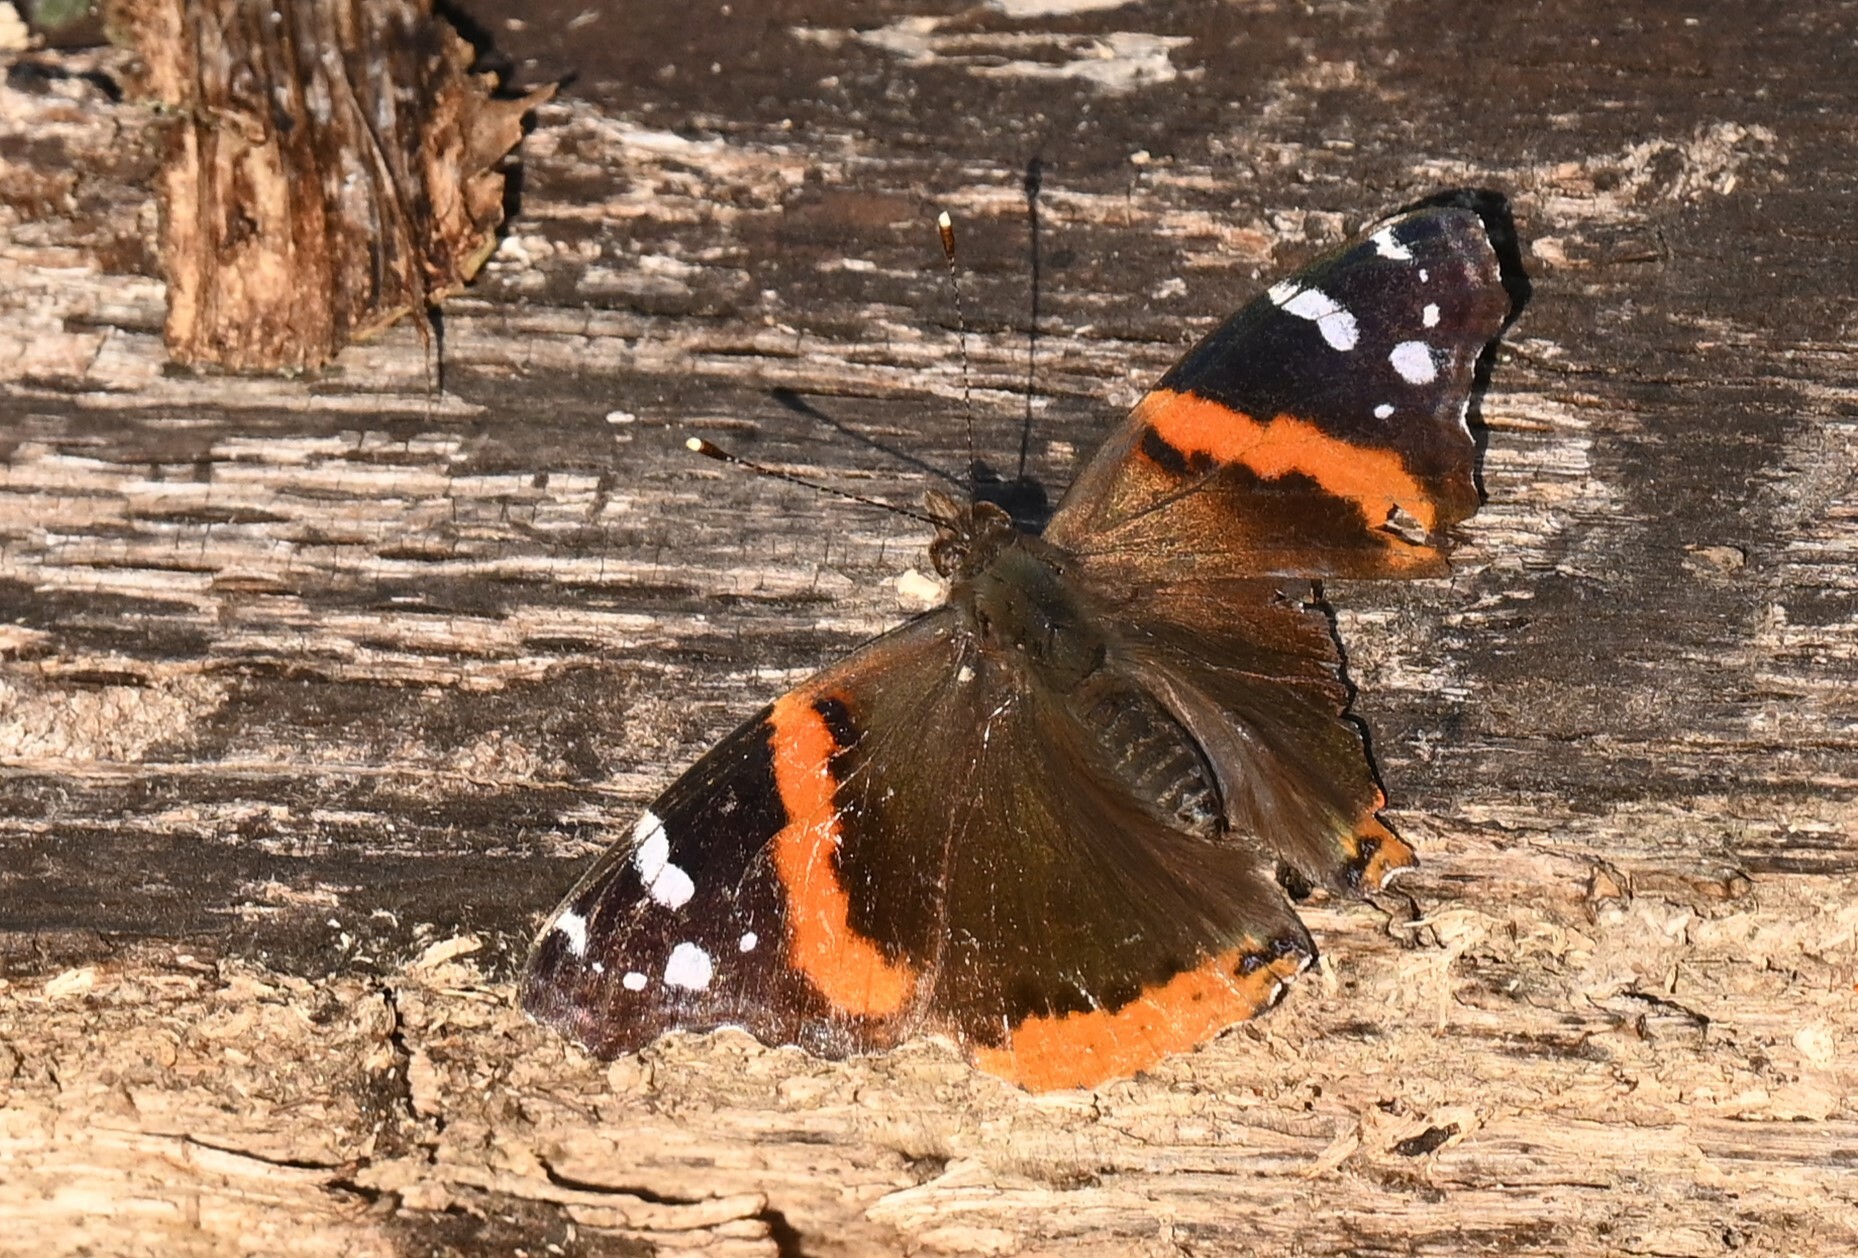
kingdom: Animalia
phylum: Arthropoda
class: Insecta
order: Lepidoptera
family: Nymphalidae
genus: Vanessa
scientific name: Vanessa atalanta
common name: Red admiral
